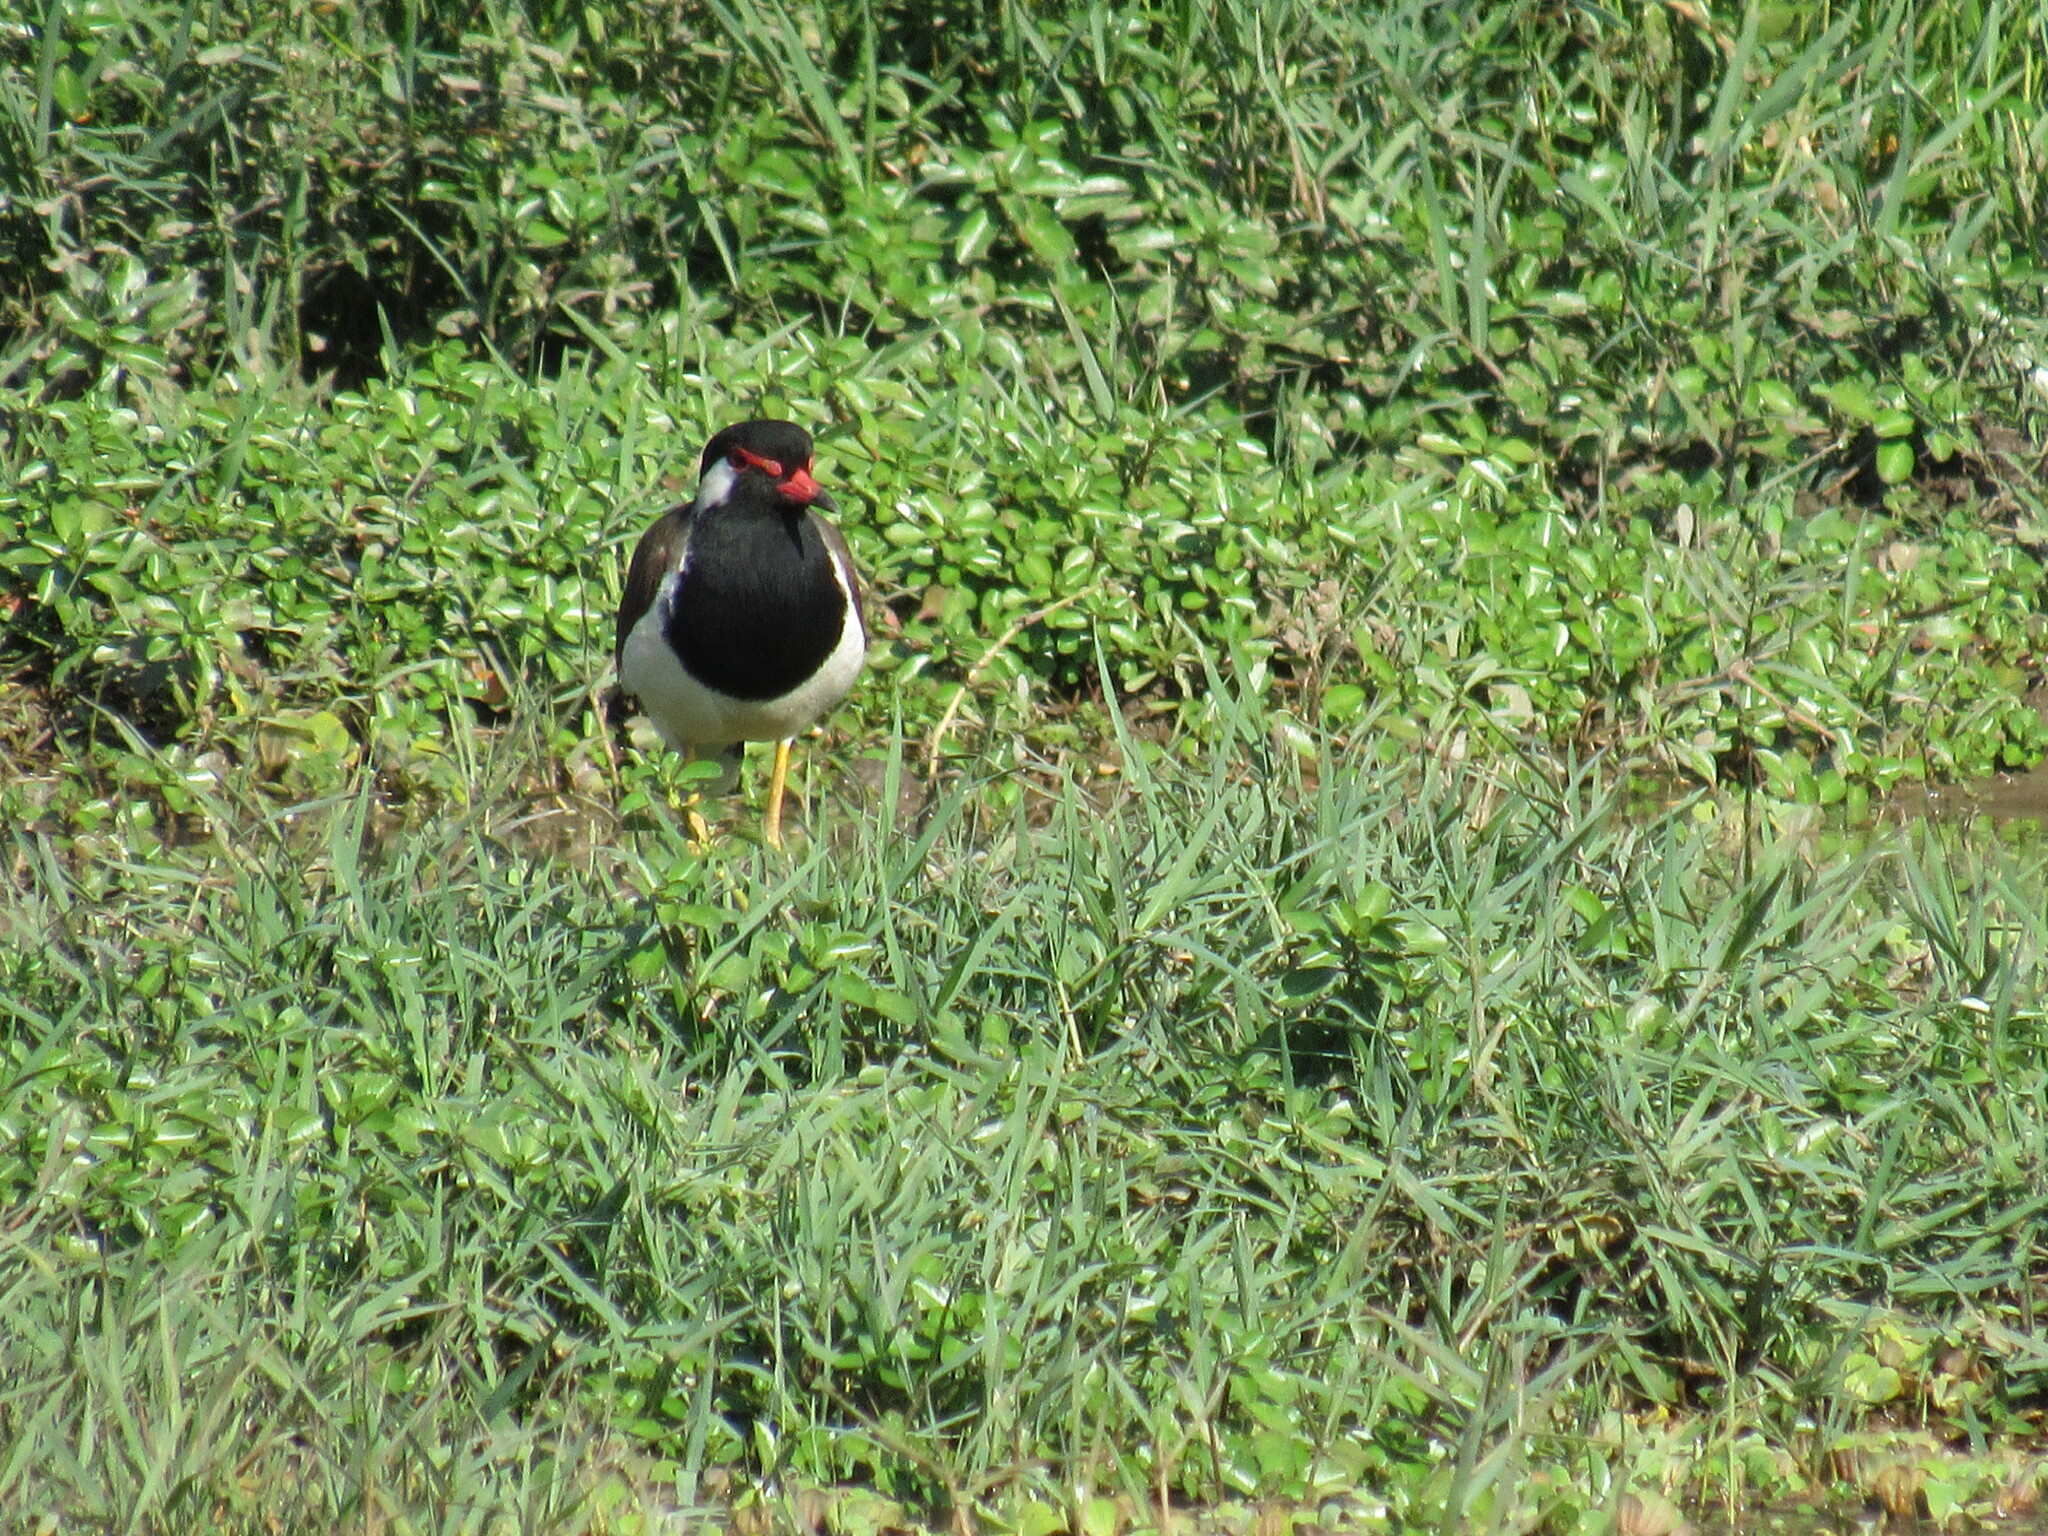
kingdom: Animalia
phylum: Chordata
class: Aves
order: Charadriiformes
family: Charadriidae
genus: Vanellus
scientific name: Vanellus indicus
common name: Red-wattled lapwing
